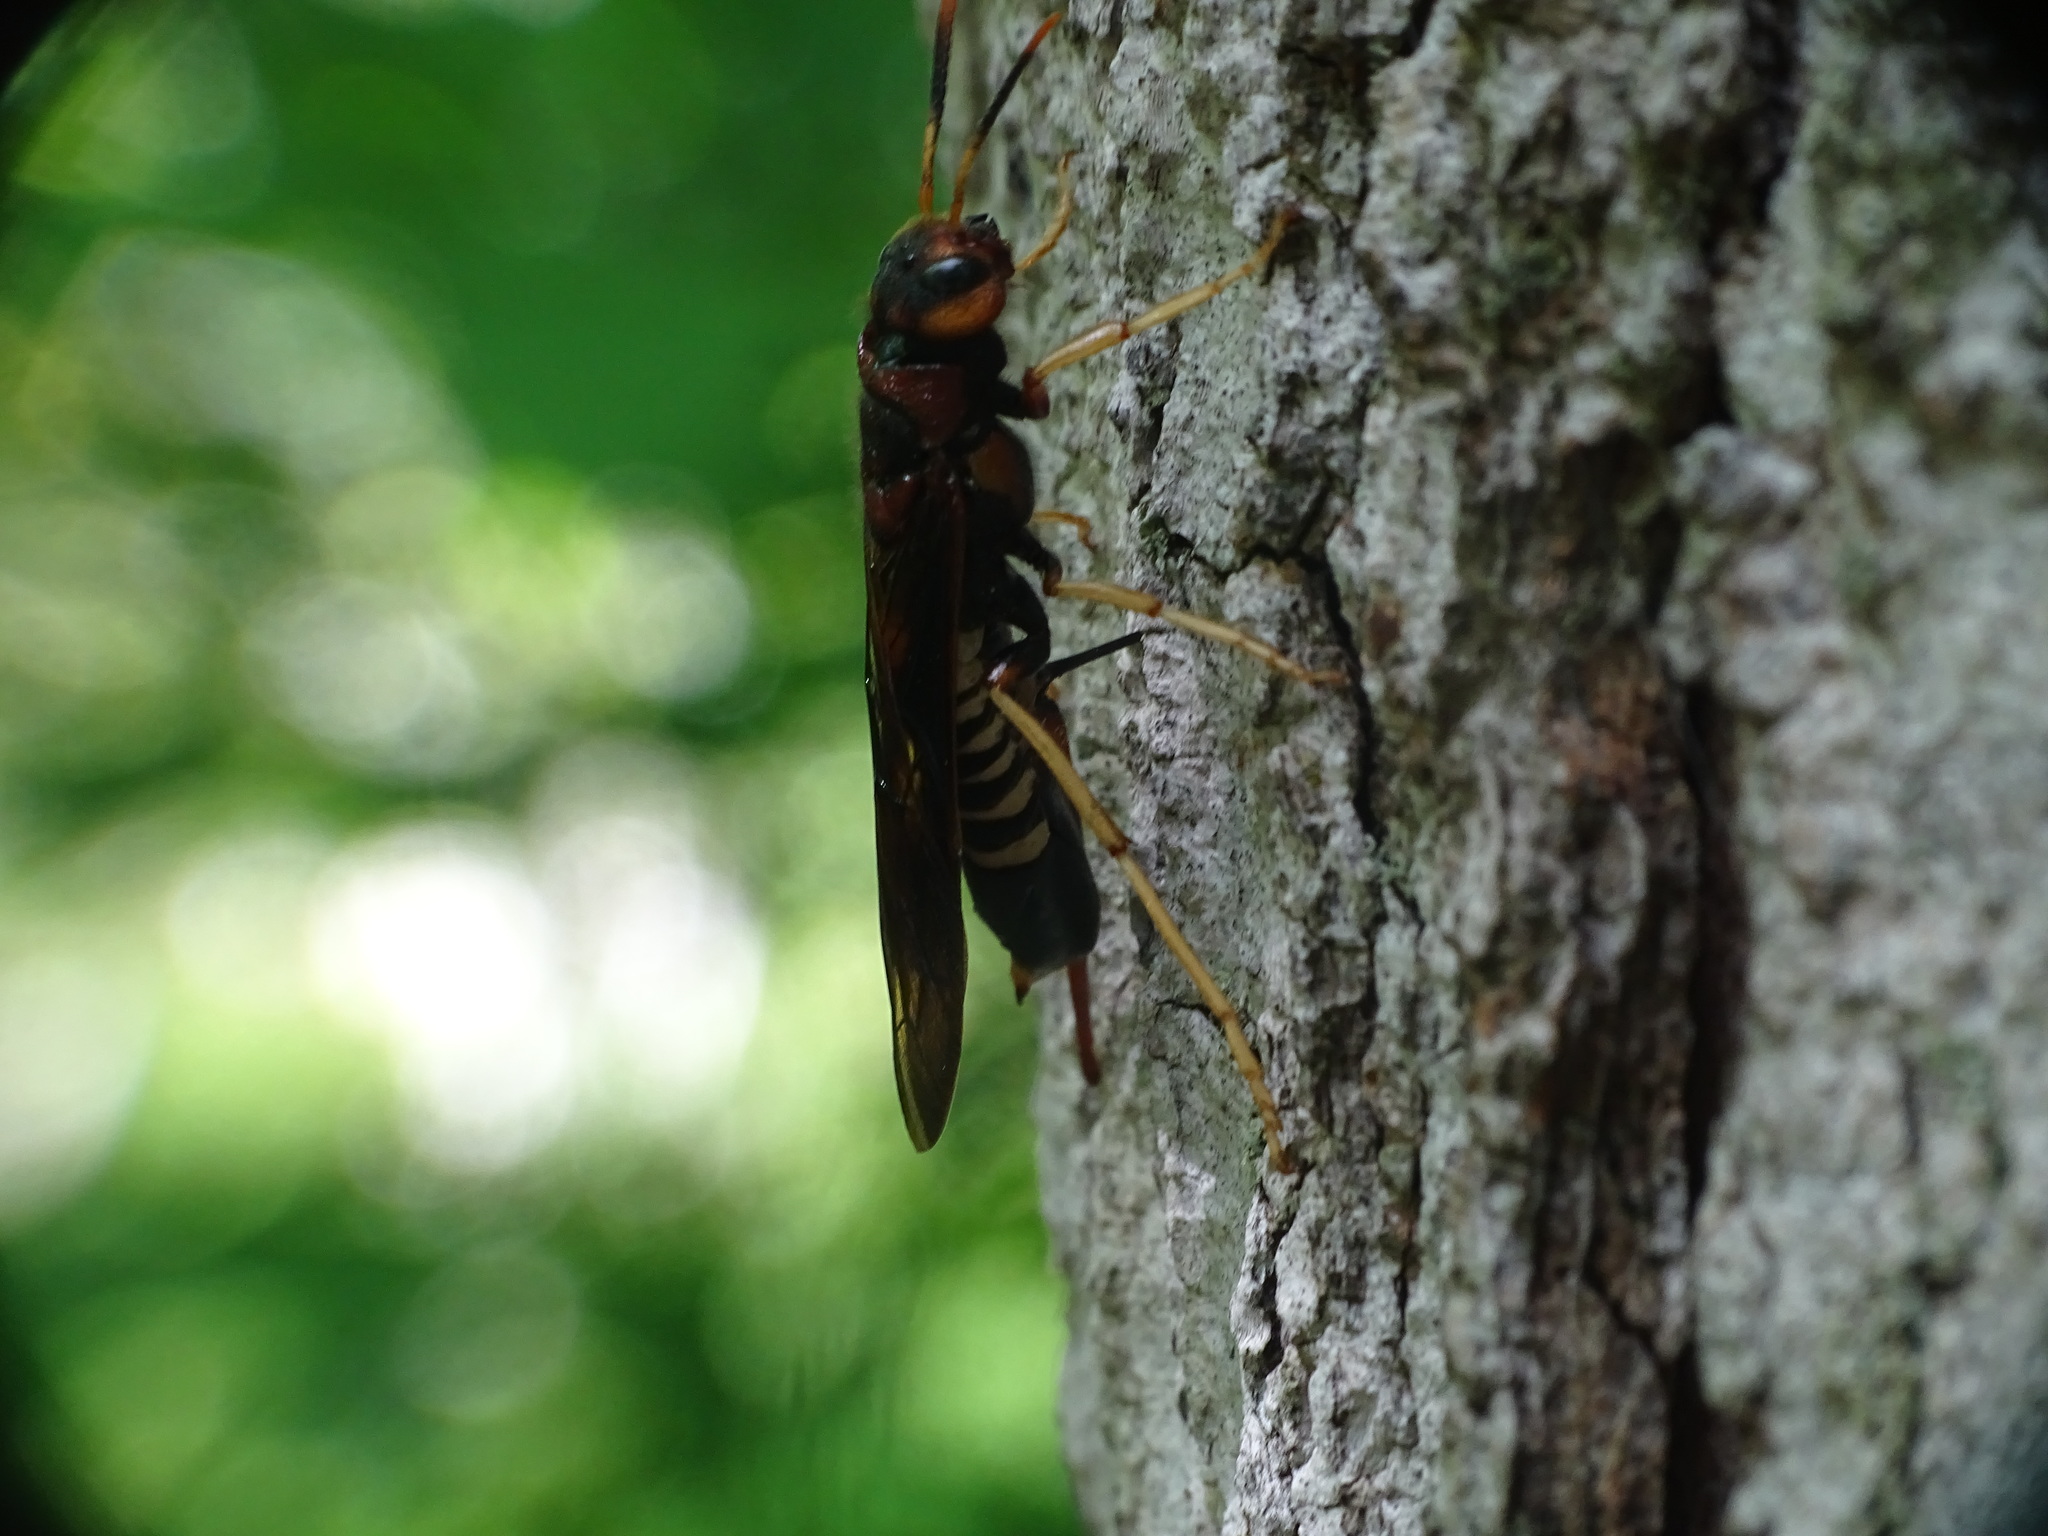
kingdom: Animalia
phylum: Arthropoda
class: Insecta
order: Hymenoptera
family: Siricidae
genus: Tremex
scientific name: Tremex columba
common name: Wasp
